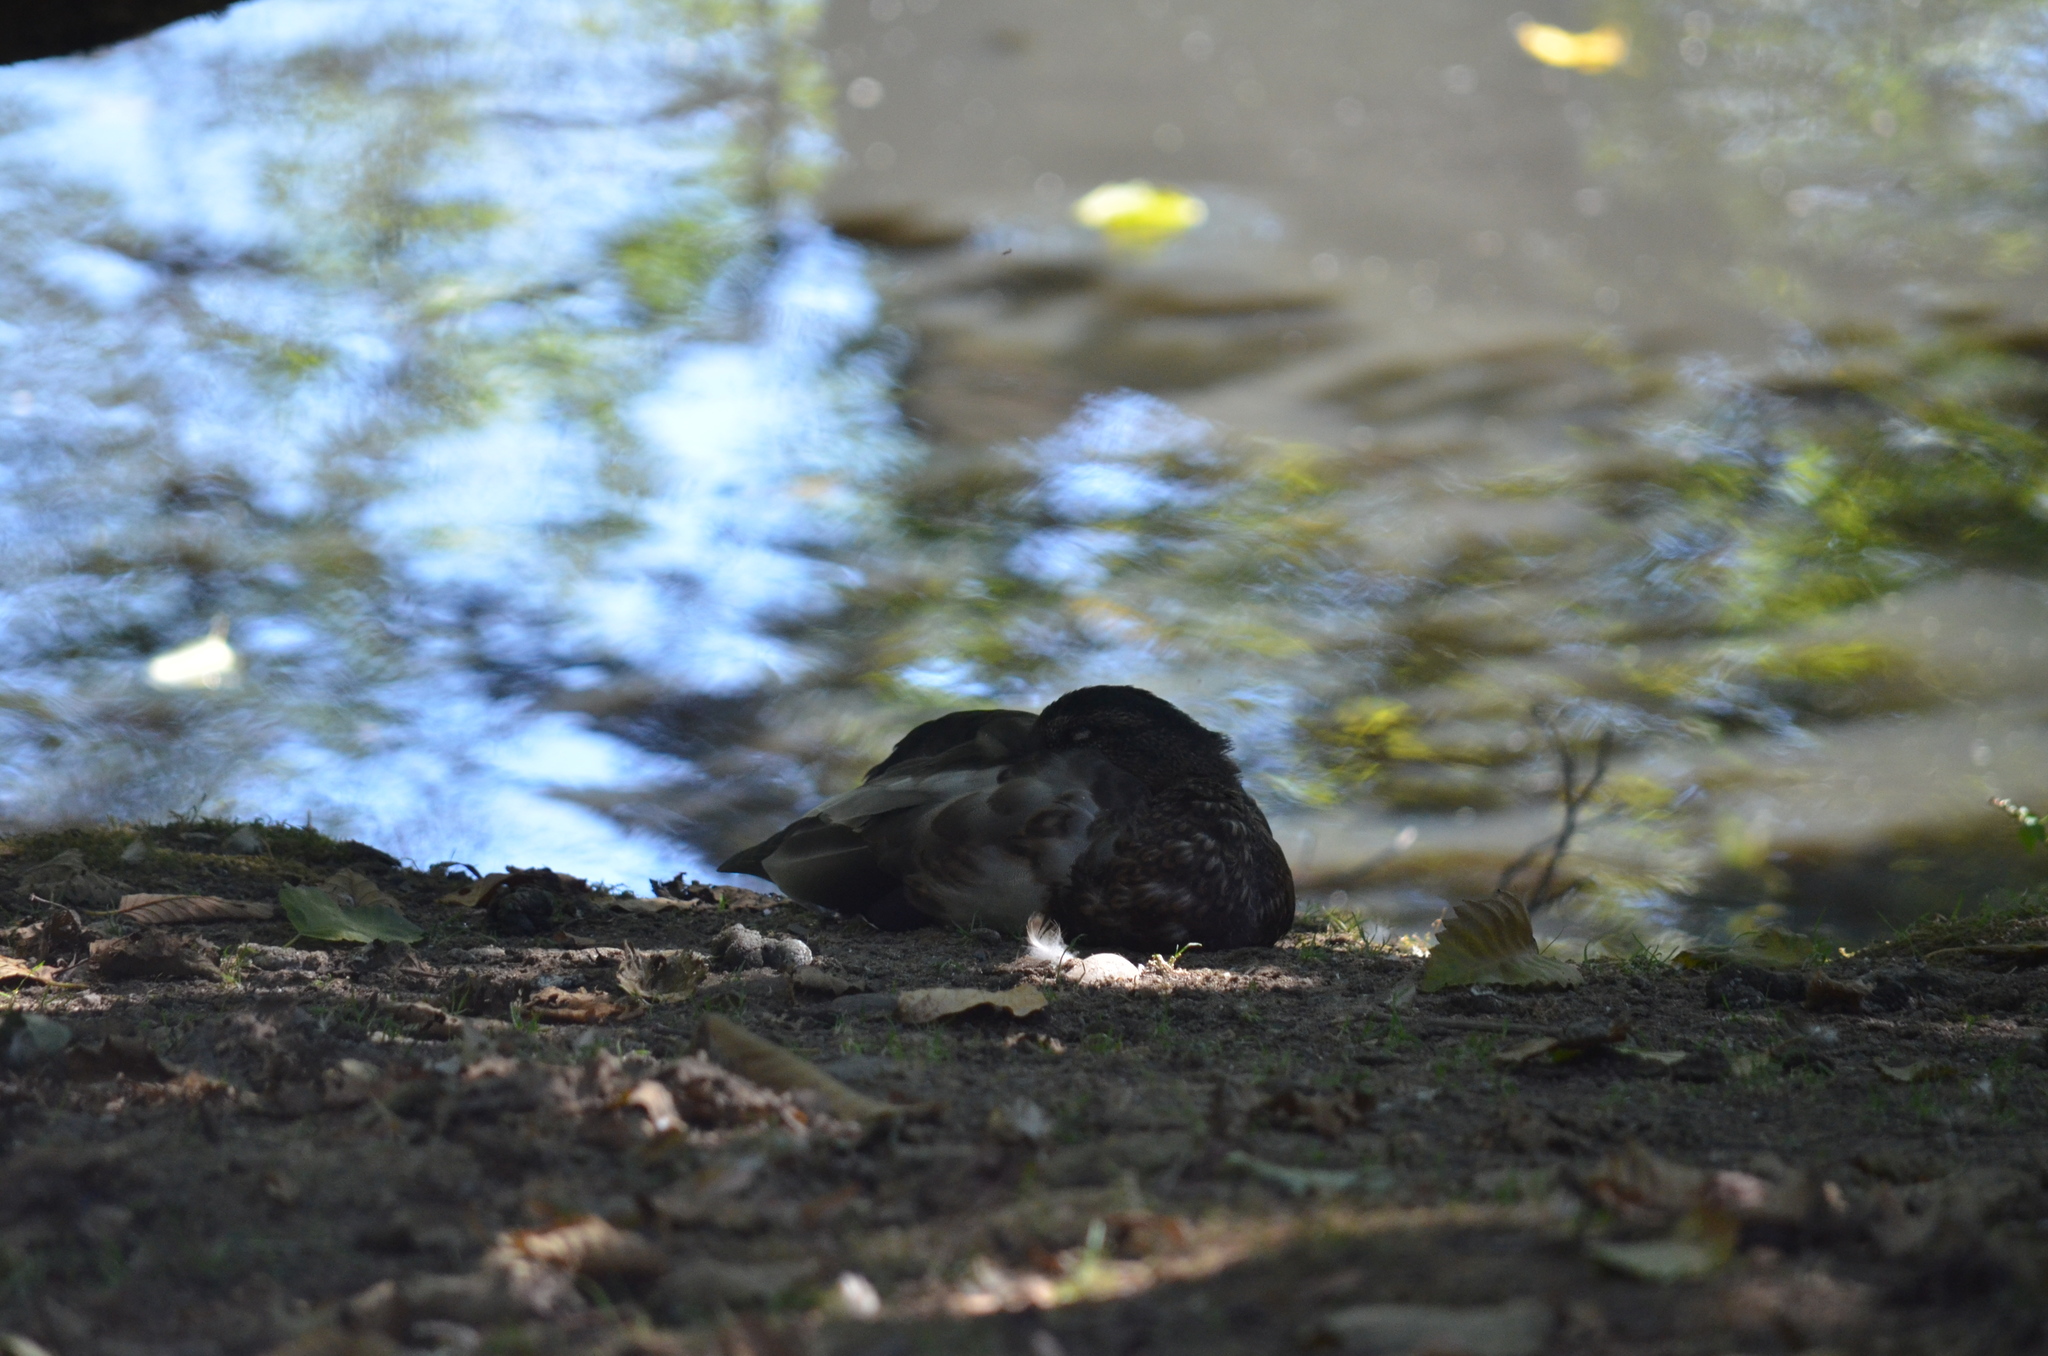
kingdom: Animalia
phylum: Chordata
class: Aves
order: Anseriformes
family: Anatidae
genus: Anas
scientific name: Anas platyrhynchos
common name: Mallard
